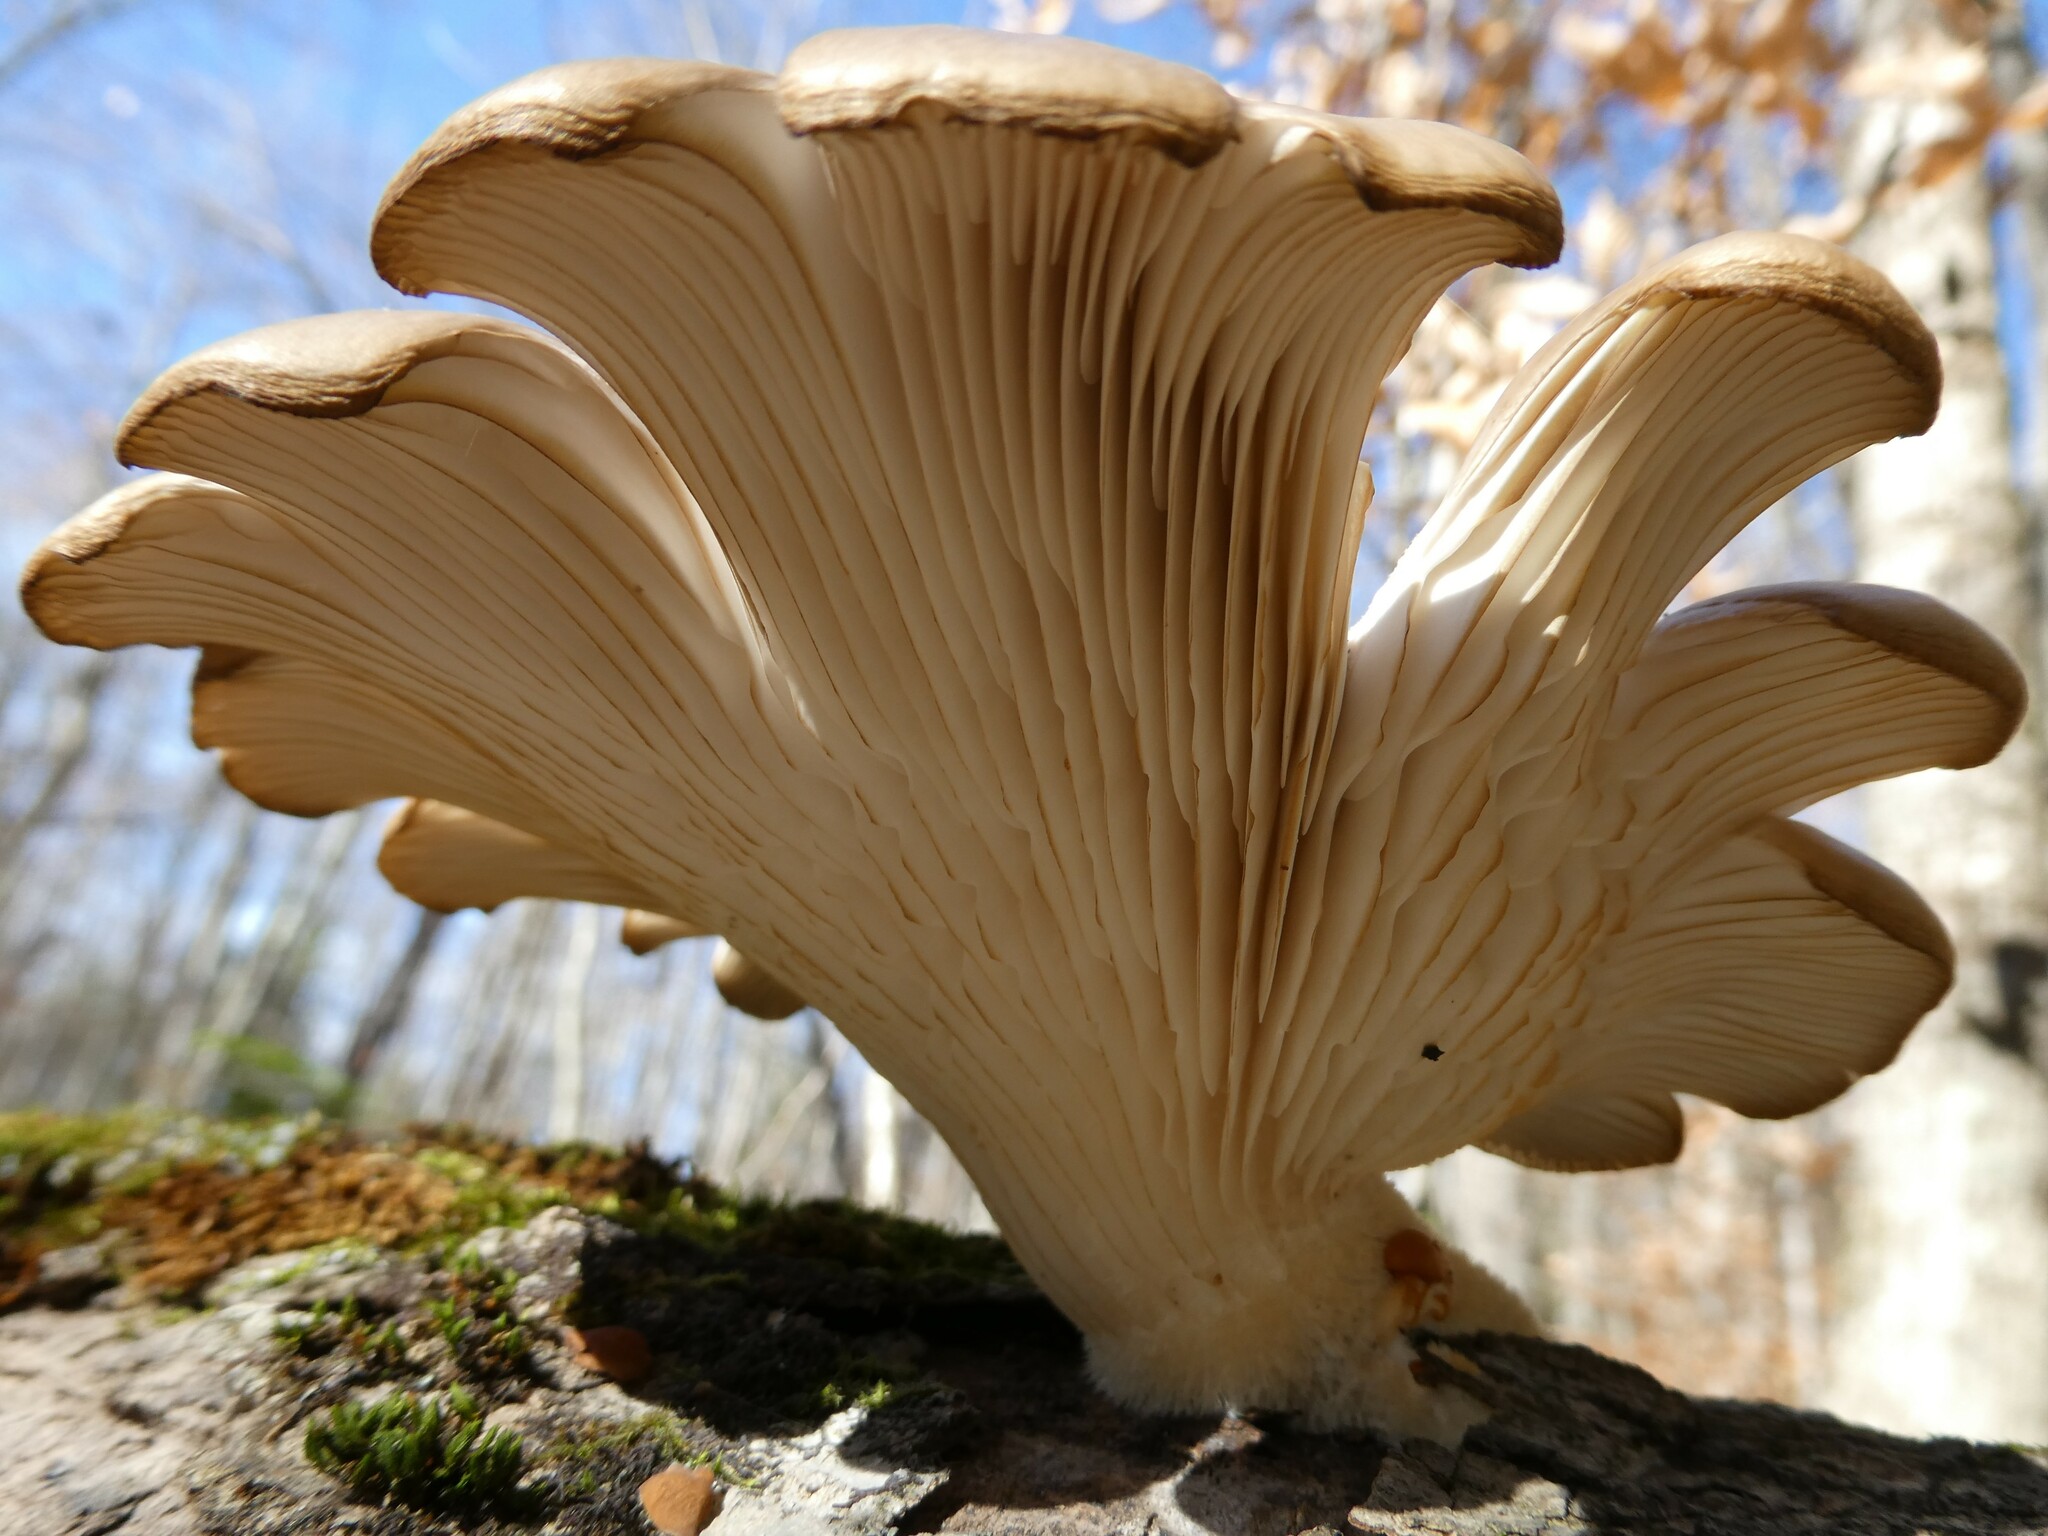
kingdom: Fungi
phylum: Basidiomycota
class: Agaricomycetes
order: Agaricales
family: Pleurotaceae
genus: Pleurotus
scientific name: Pleurotus ostreatus
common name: Oyster mushroom
